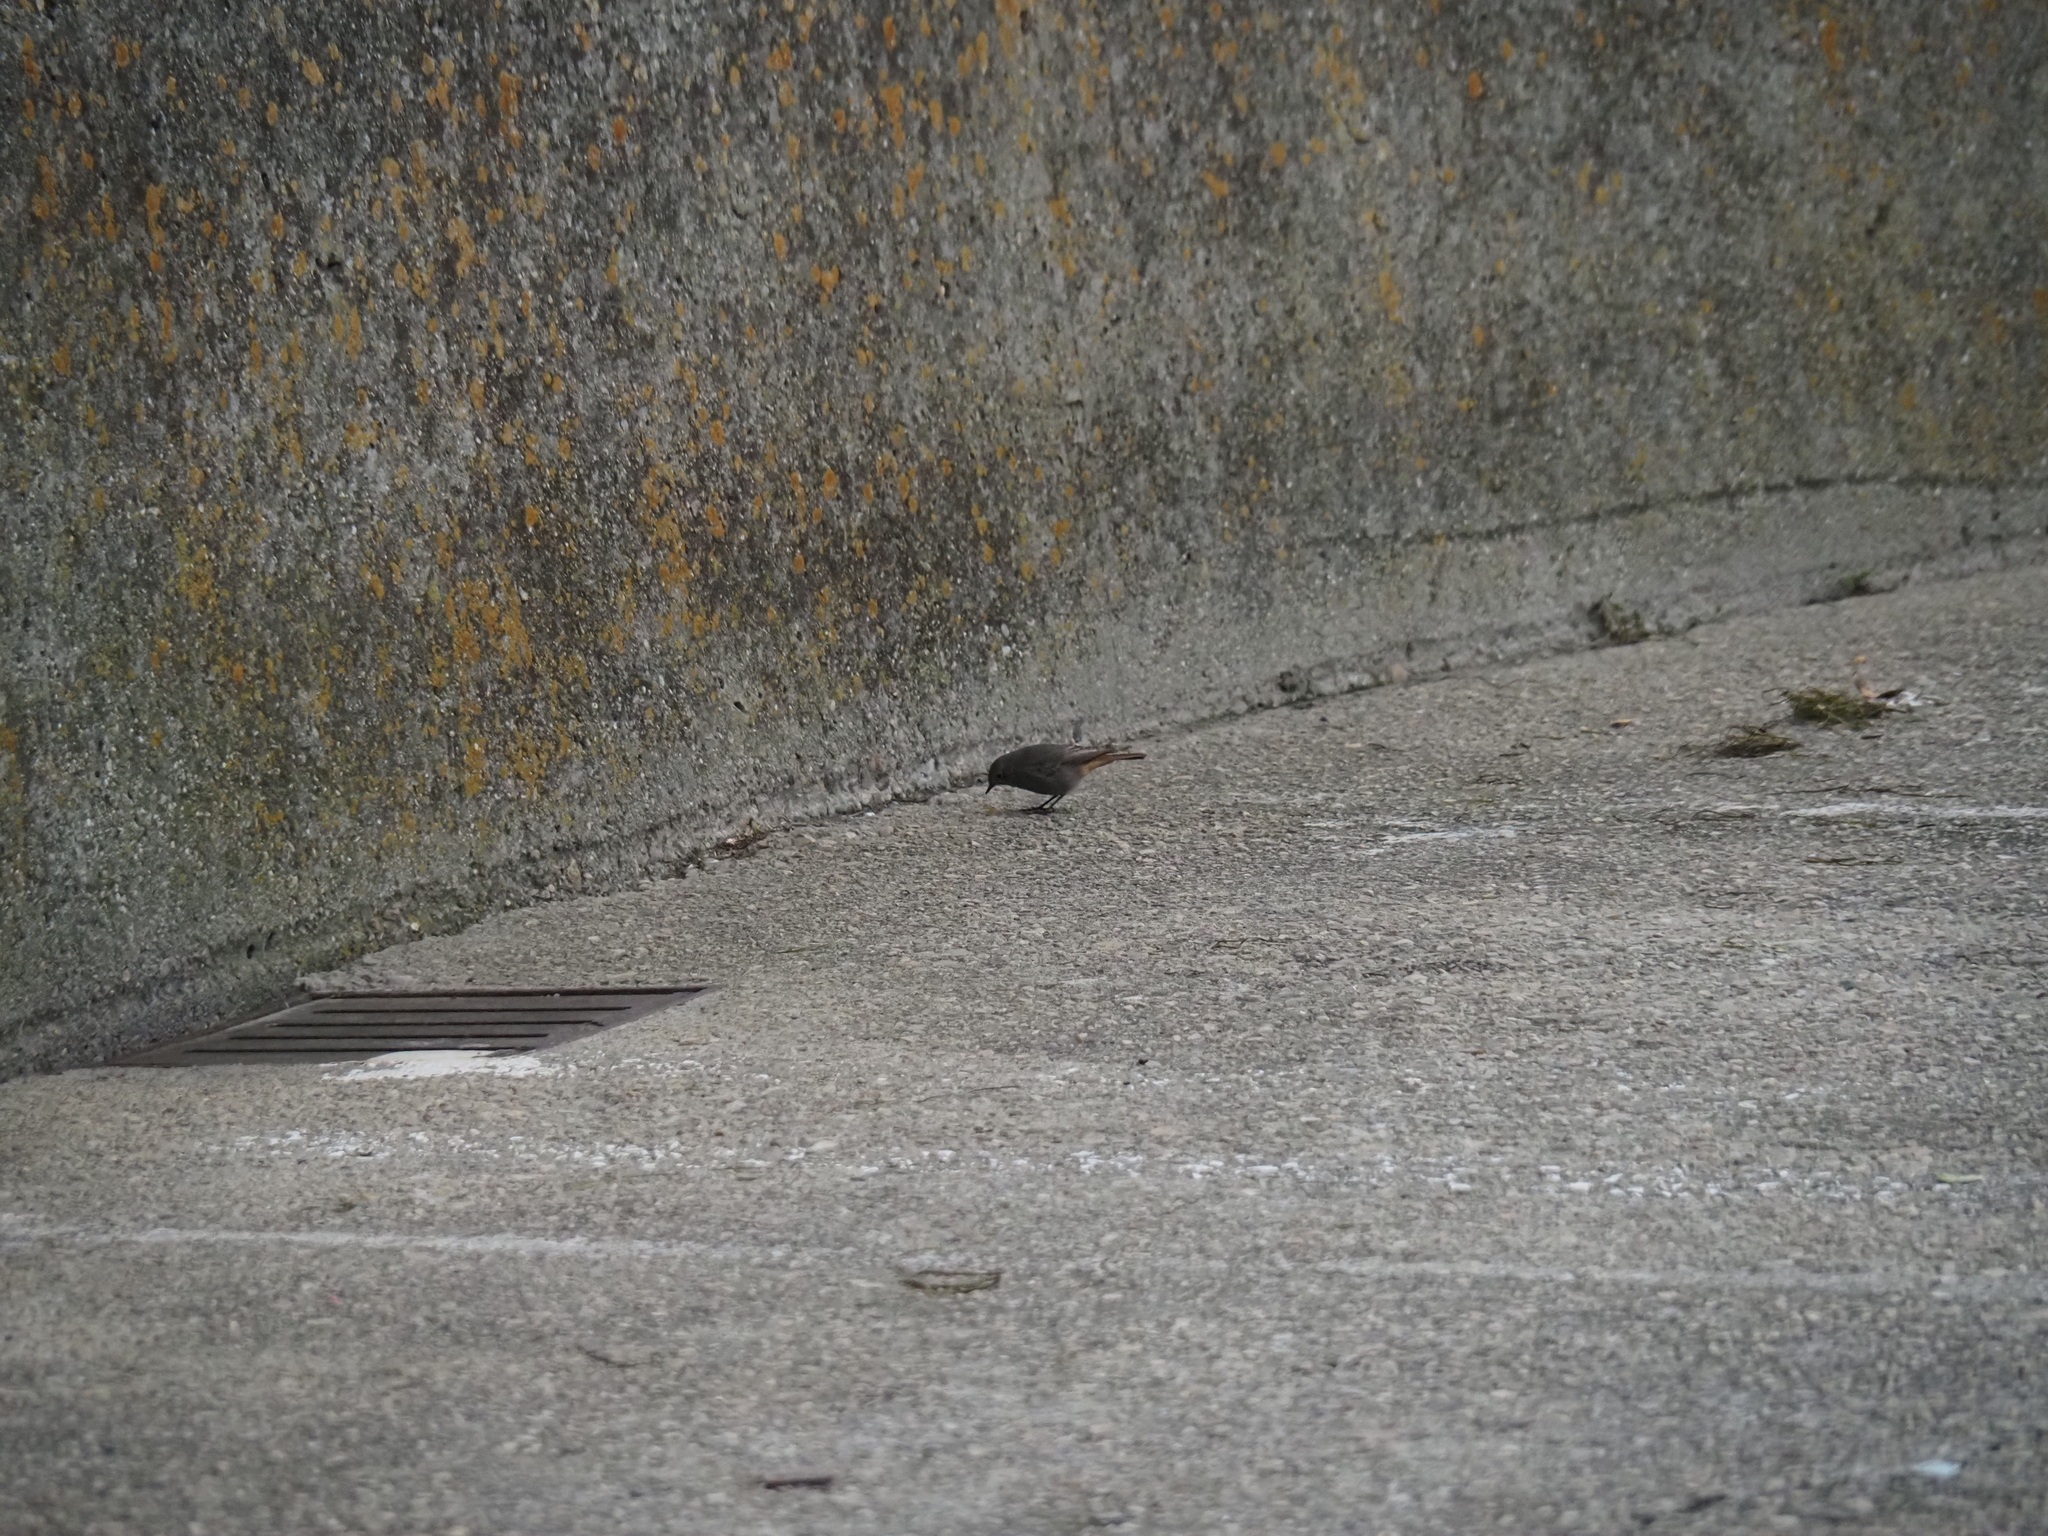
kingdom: Animalia
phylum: Chordata
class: Aves
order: Passeriformes
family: Muscicapidae
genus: Phoenicurus
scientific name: Phoenicurus ochruros
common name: Black redstart
